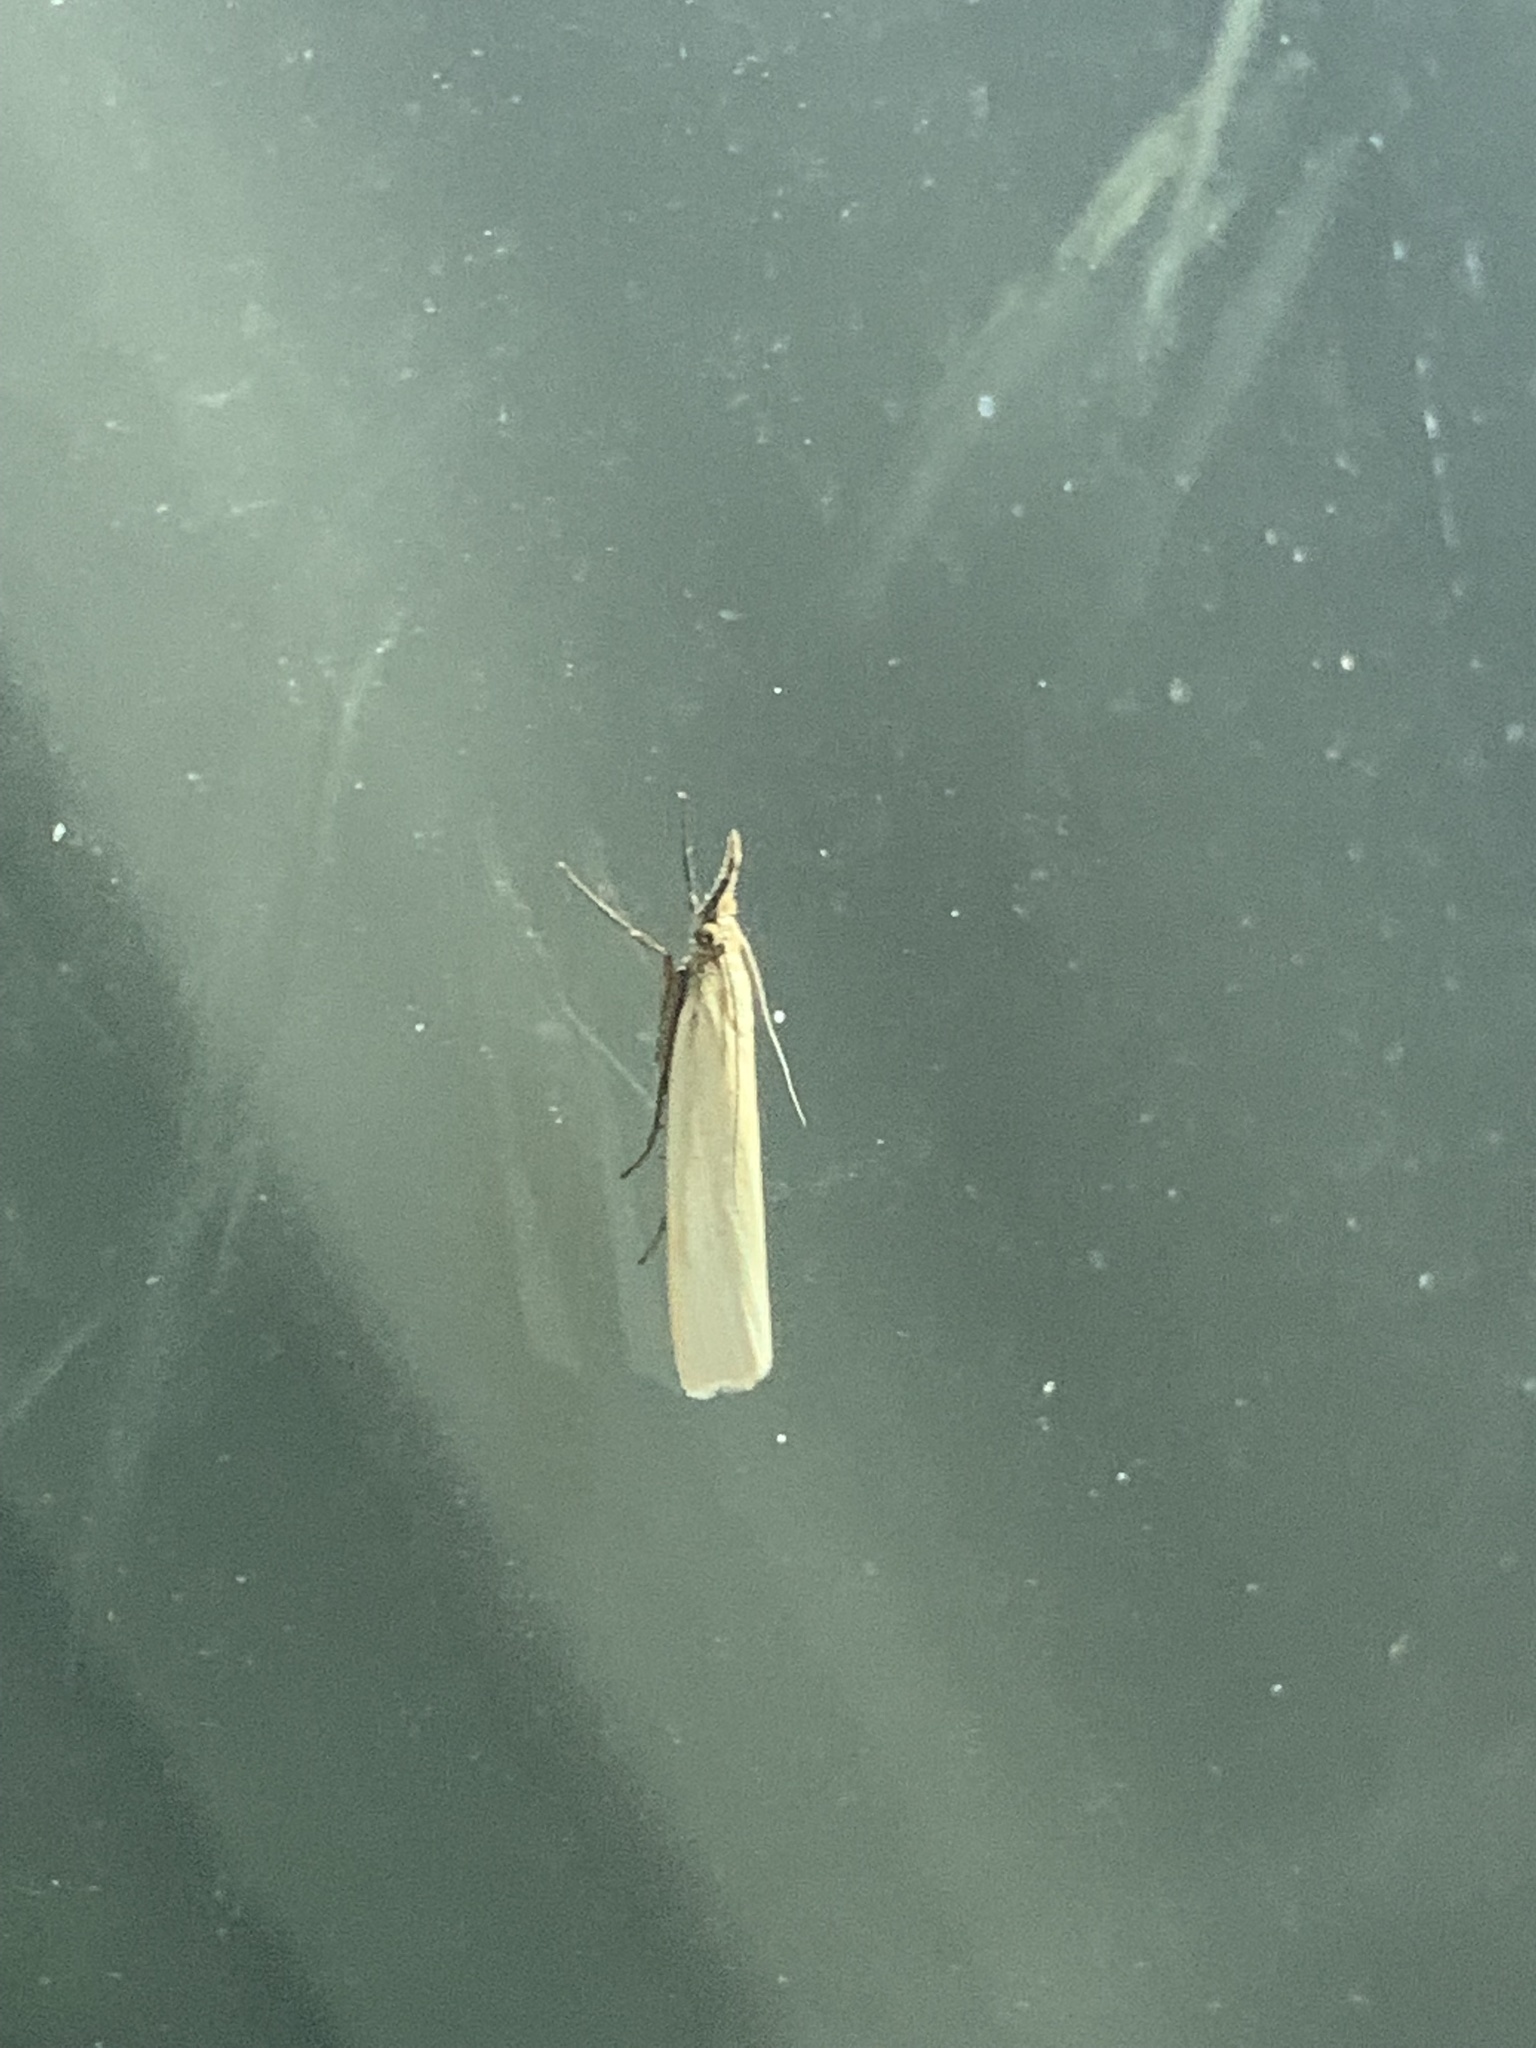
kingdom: Animalia
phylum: Arthropoda
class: Insecta
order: Lepidoptera
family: Crambidae
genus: Crambus
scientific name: Crambus perlellus
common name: Yellow satin veneer
